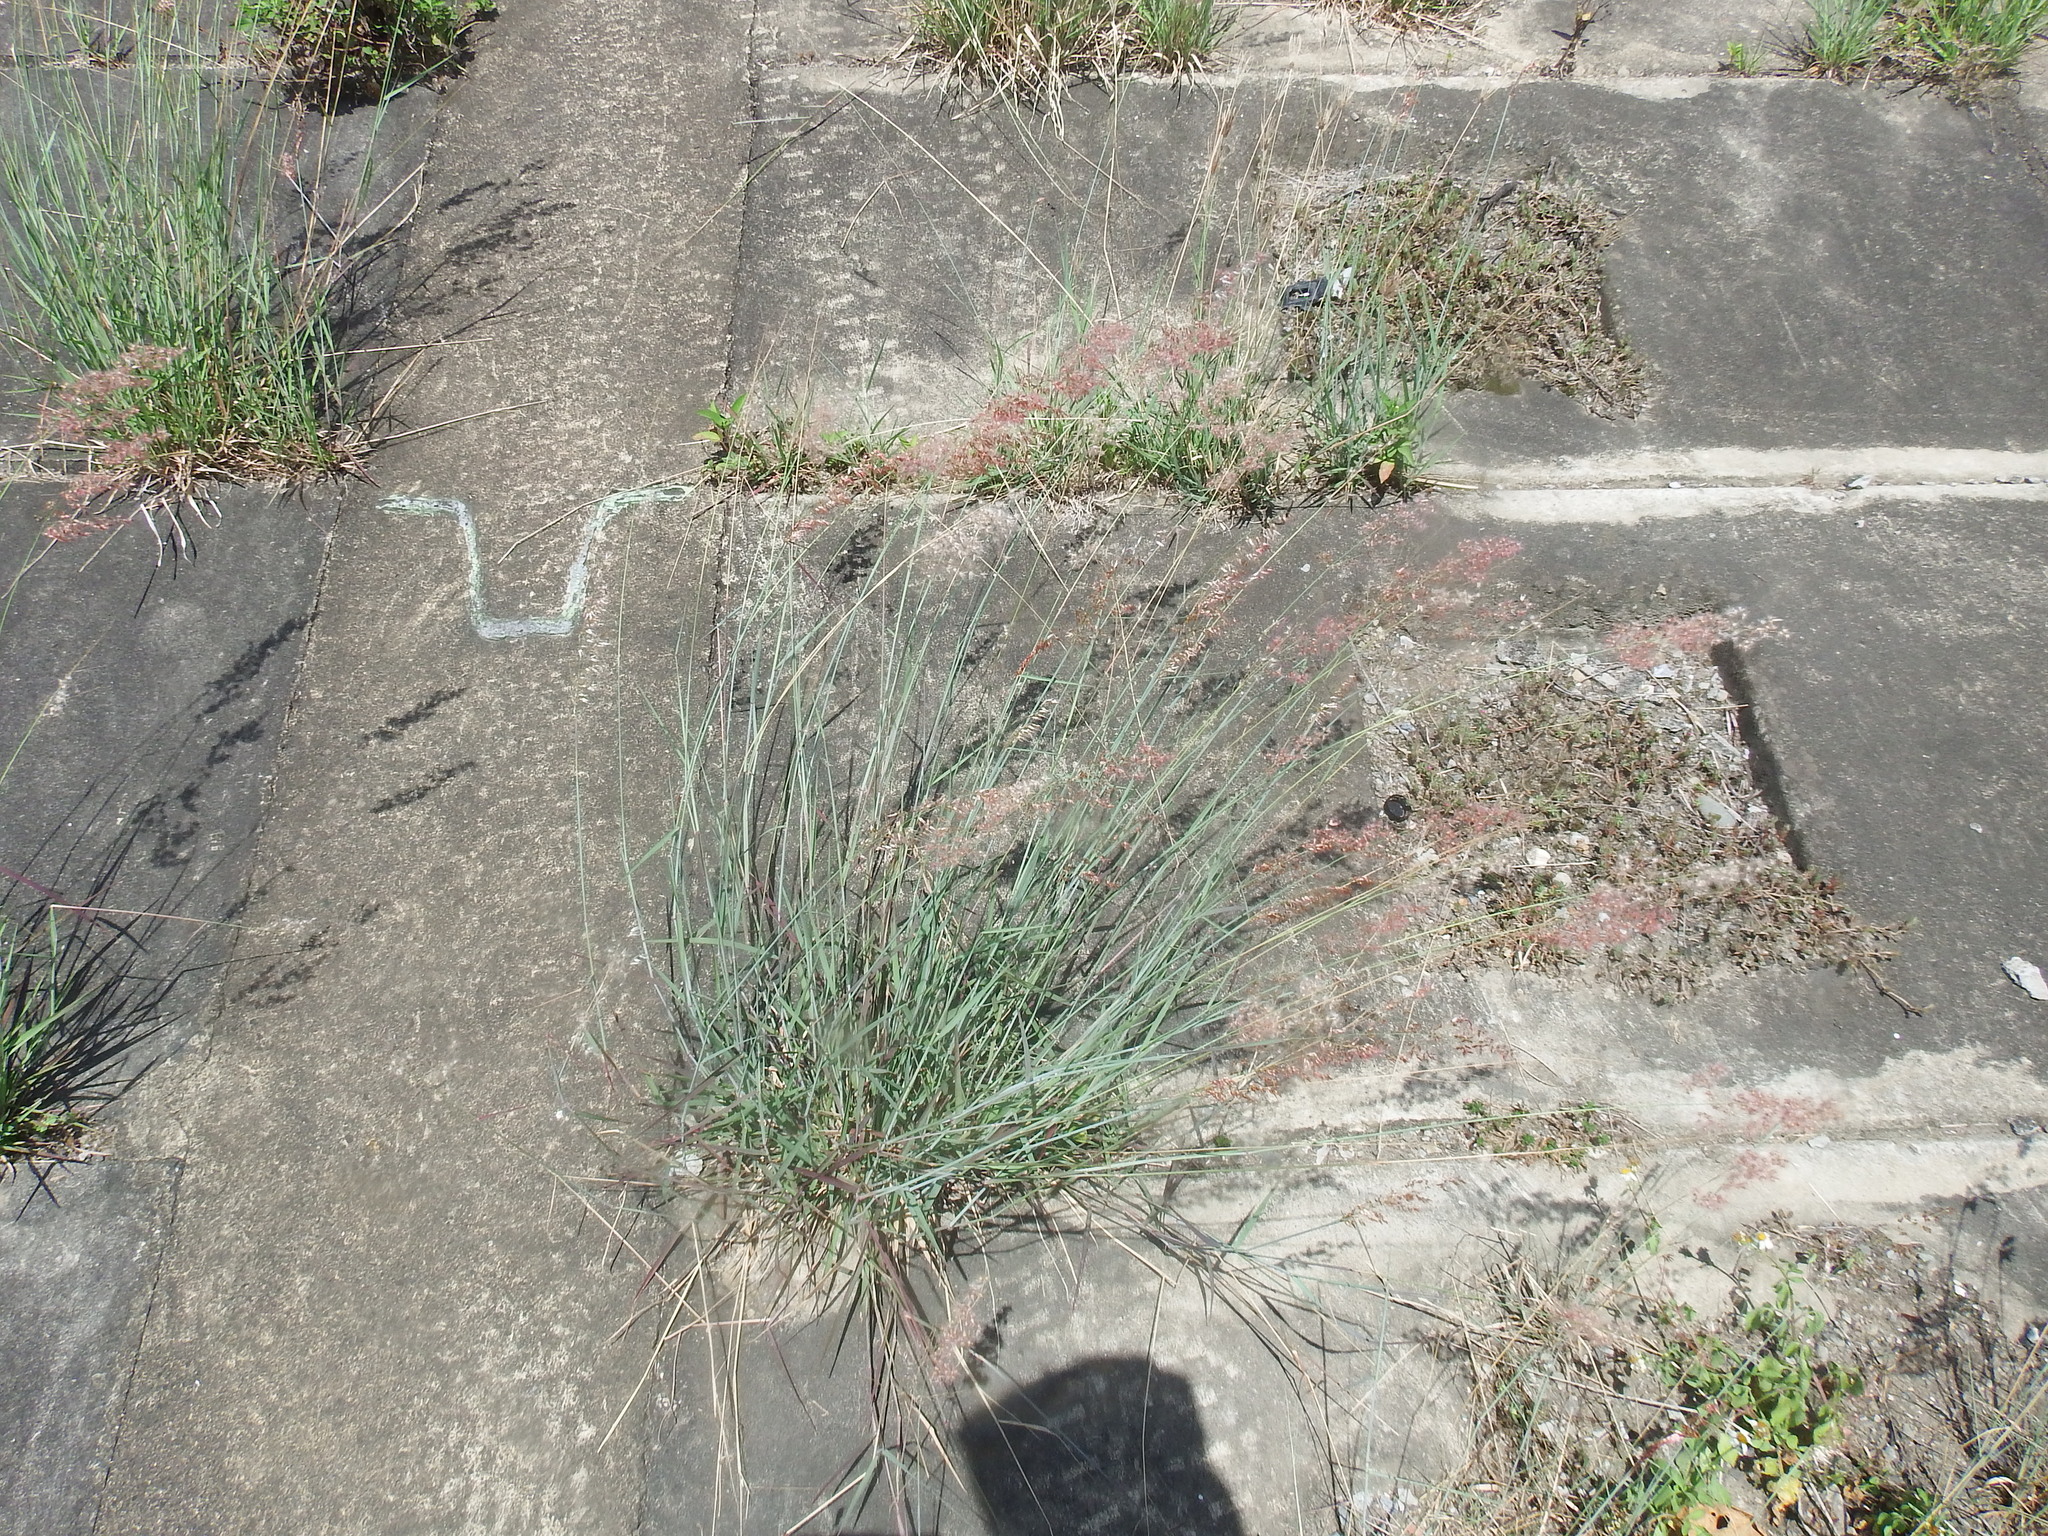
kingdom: Plantae
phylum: Tracheophyta
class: Liliopsida
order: Poales
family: Poaceae
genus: Melinis
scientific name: Melinis repens
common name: Rose natal grass
